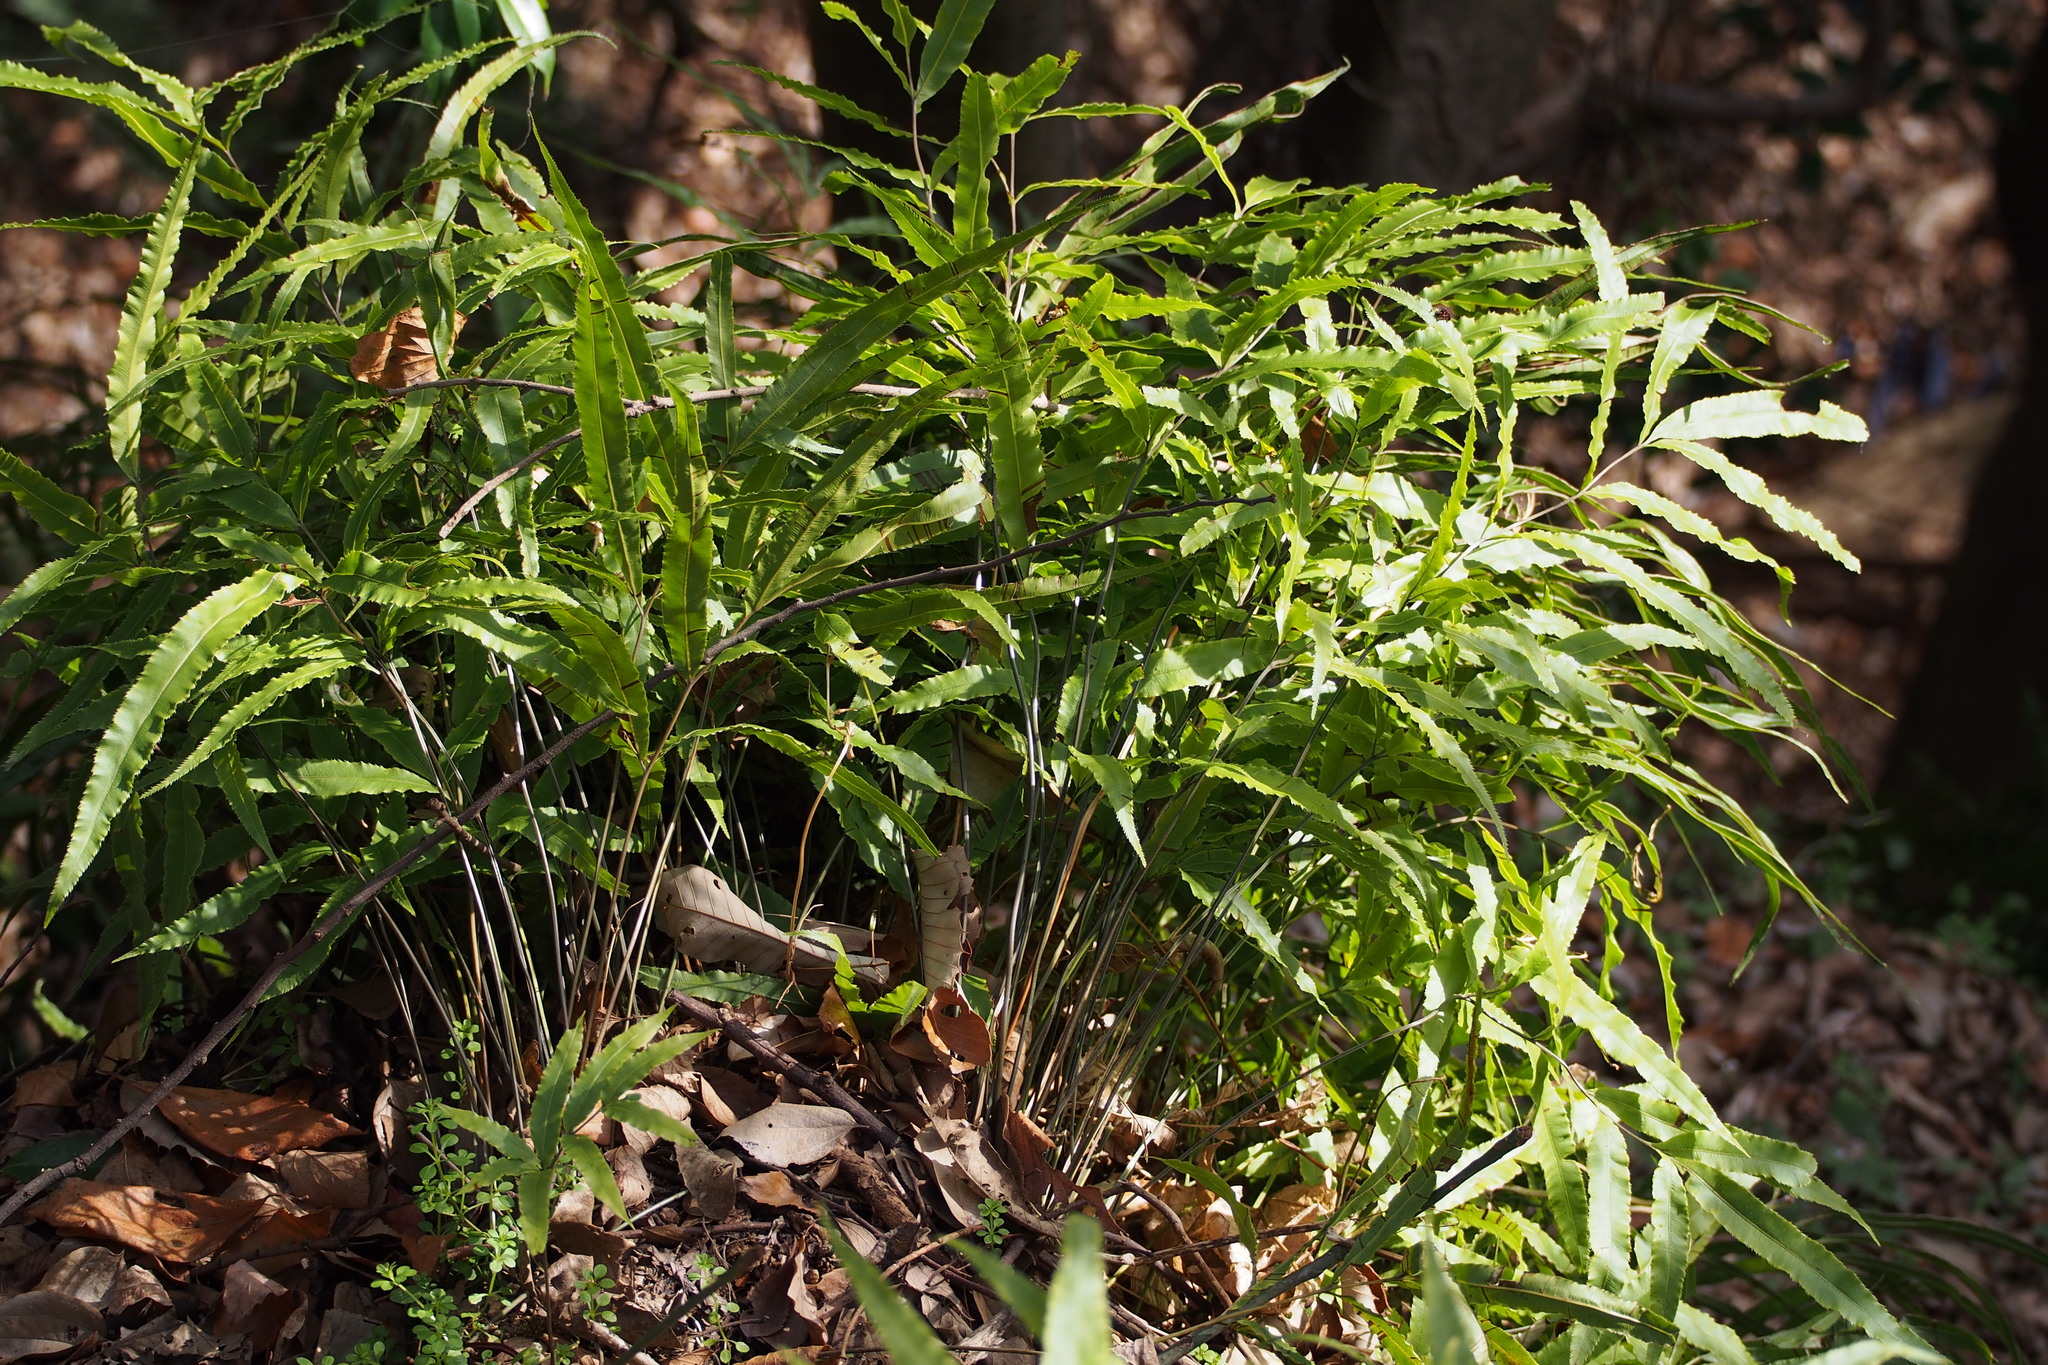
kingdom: Plantae
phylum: Tracheophyta
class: Polypodiopsida
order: Polypodiales
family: Pteridaceae
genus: Pteris
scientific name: Pteris cretica
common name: Ribbon fern
